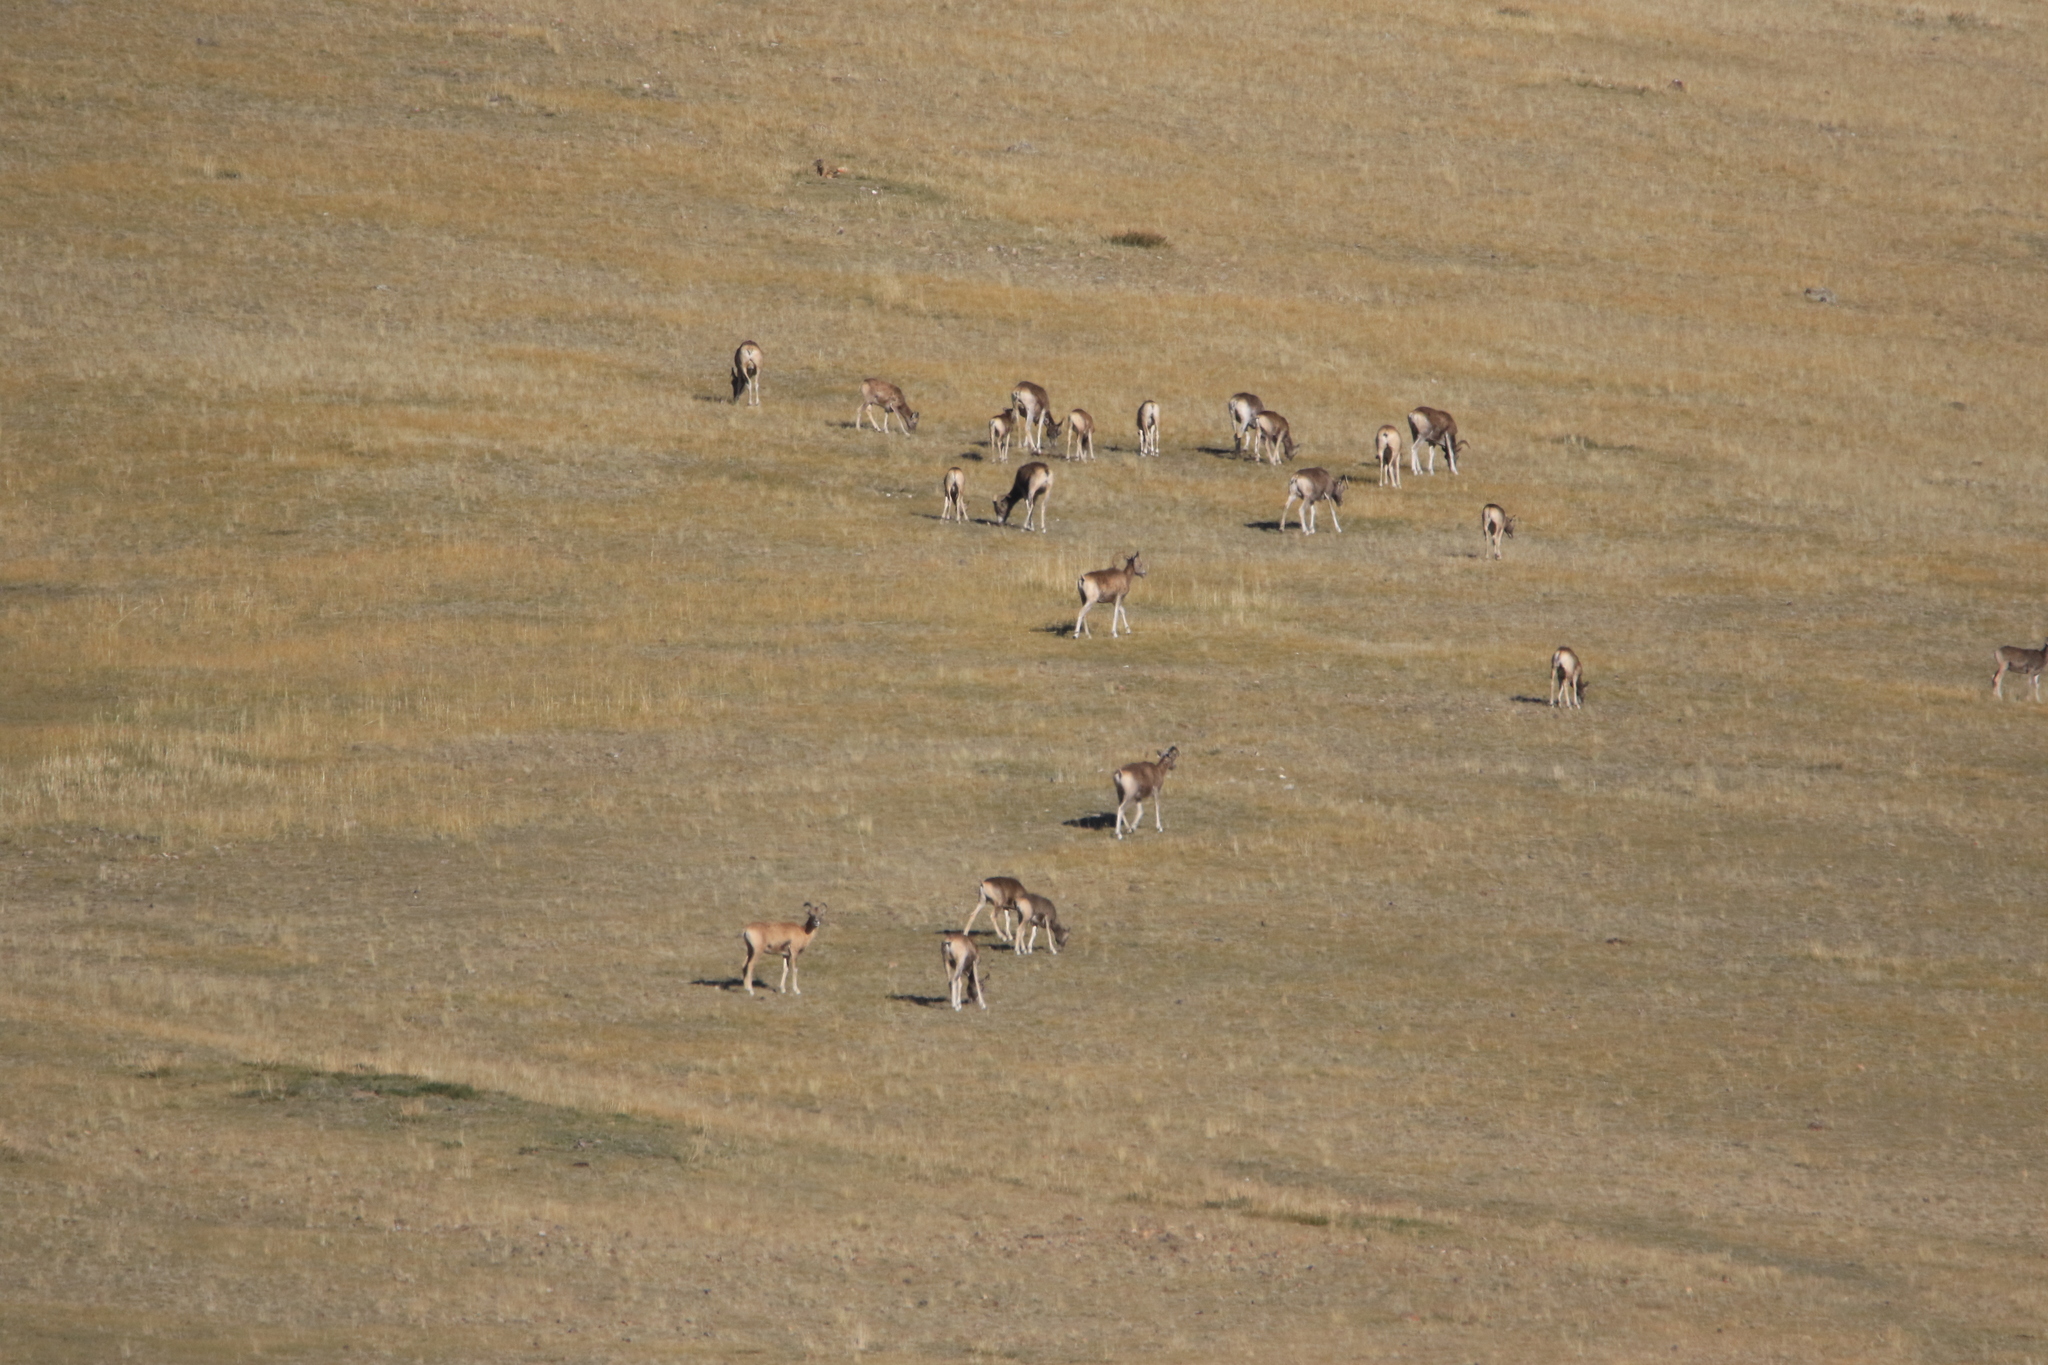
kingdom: Animalia
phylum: Chordata
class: Mammalia
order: Artiodactyla
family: Bovidae
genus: Ovis
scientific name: Ovis ammon
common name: Argali
